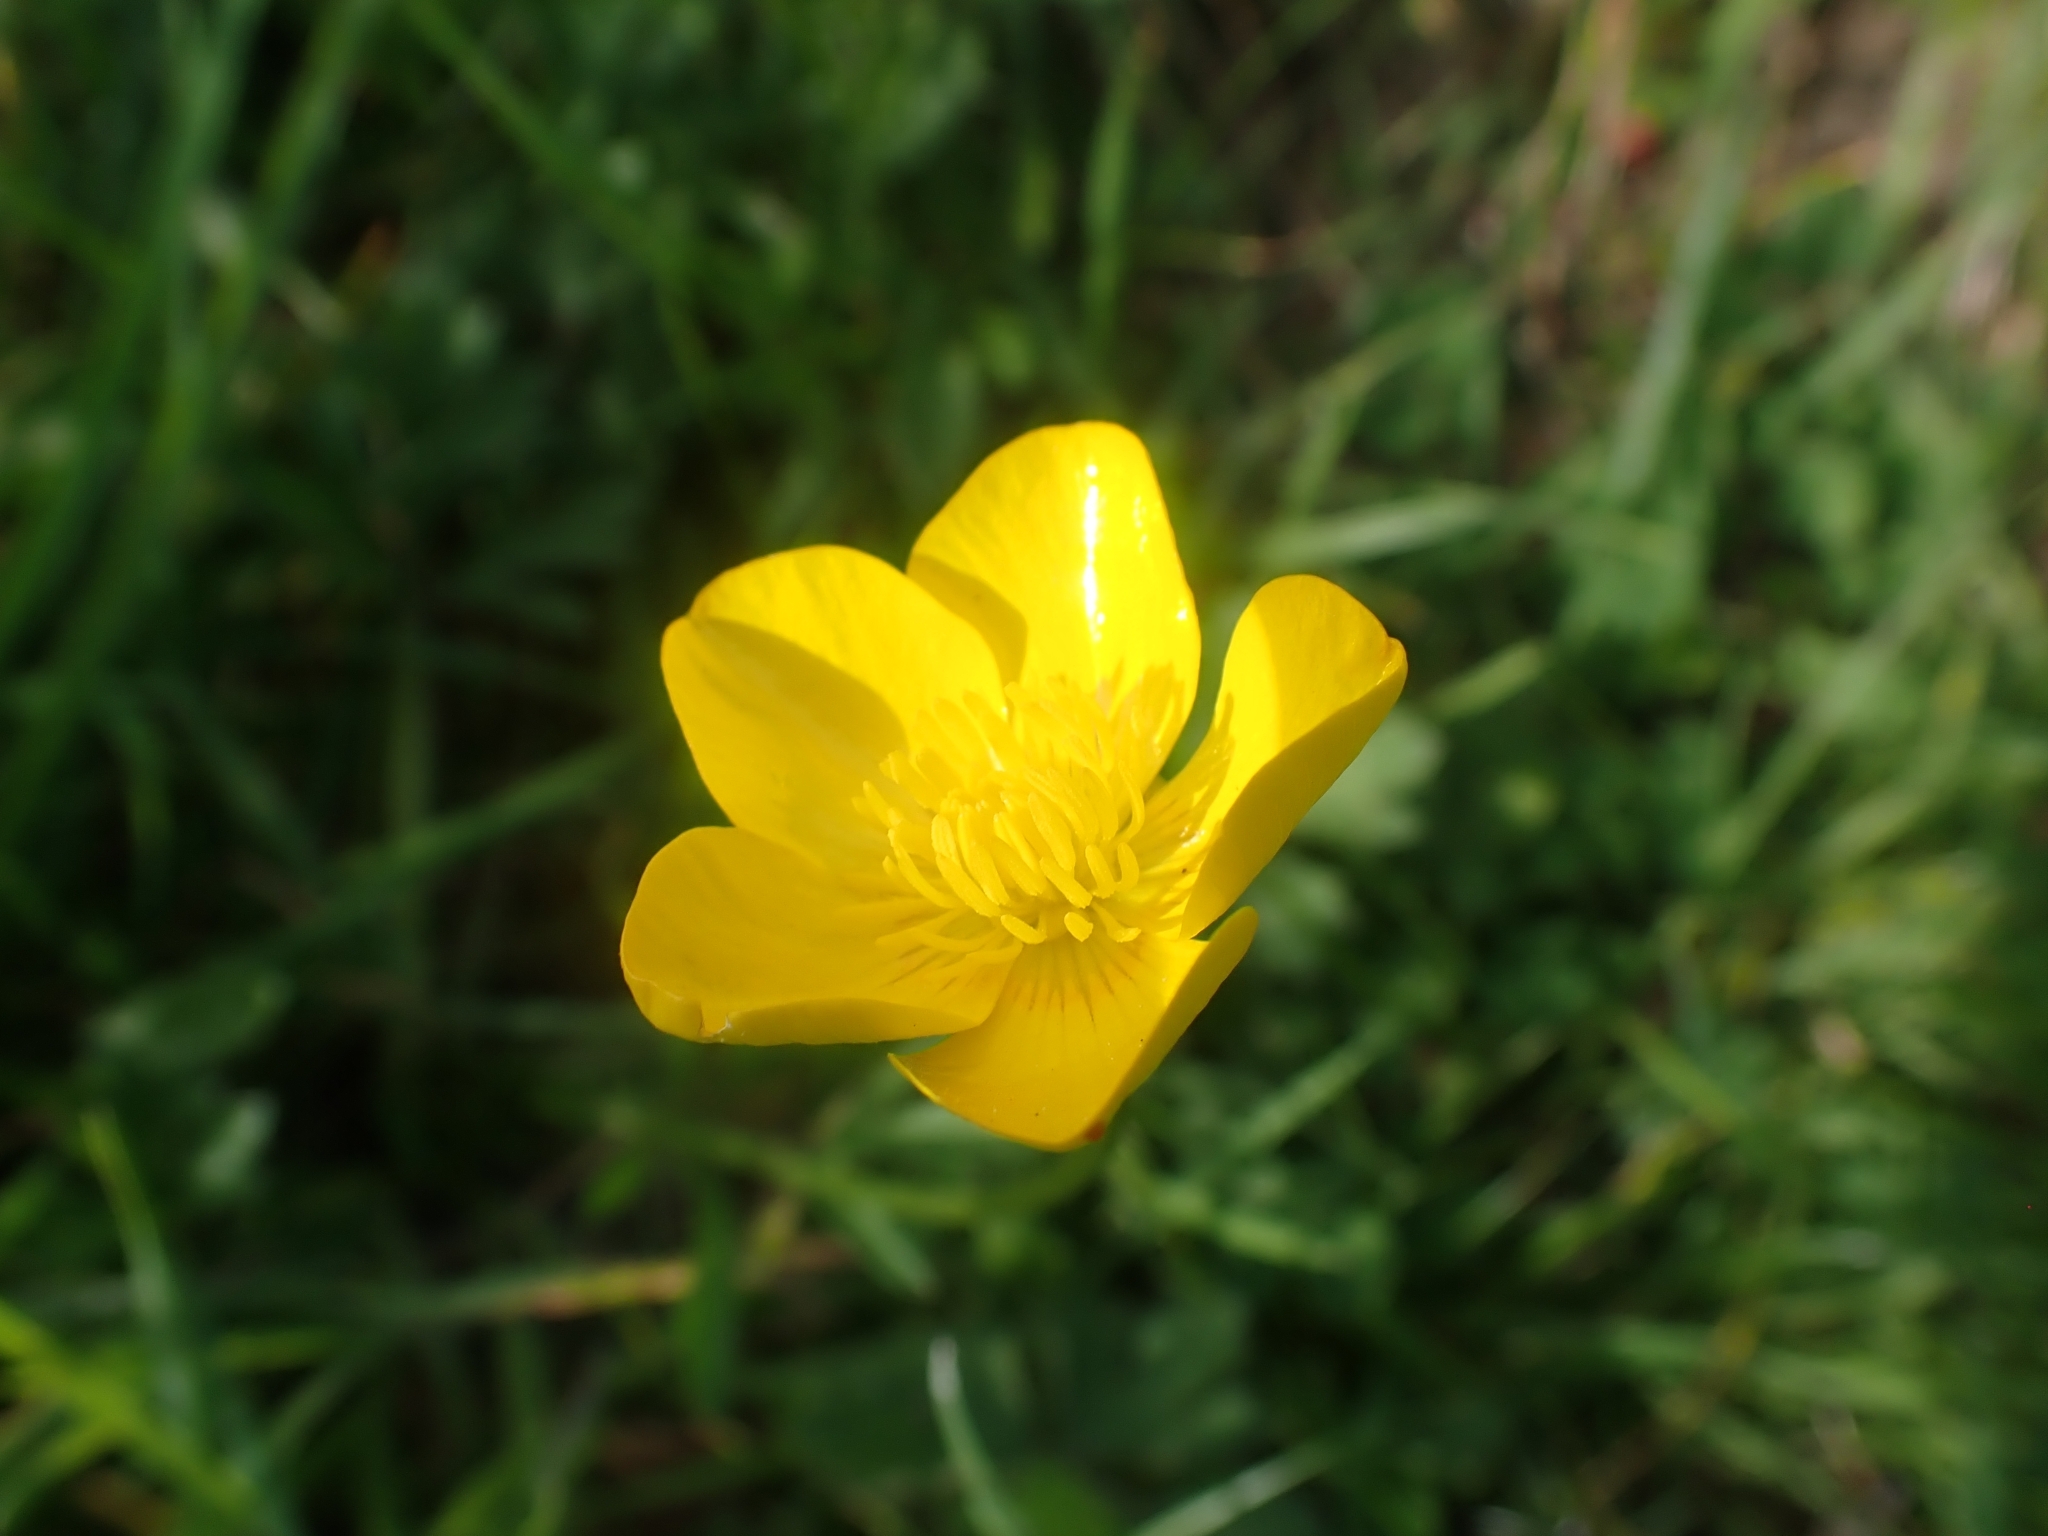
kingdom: Plantae
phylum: Tracheophyta
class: Magnoliopsida
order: Ranunculales
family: Ranunculaceae
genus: Ranunculus
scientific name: Ranunculus bulbosus
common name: Bulbous buttercup
